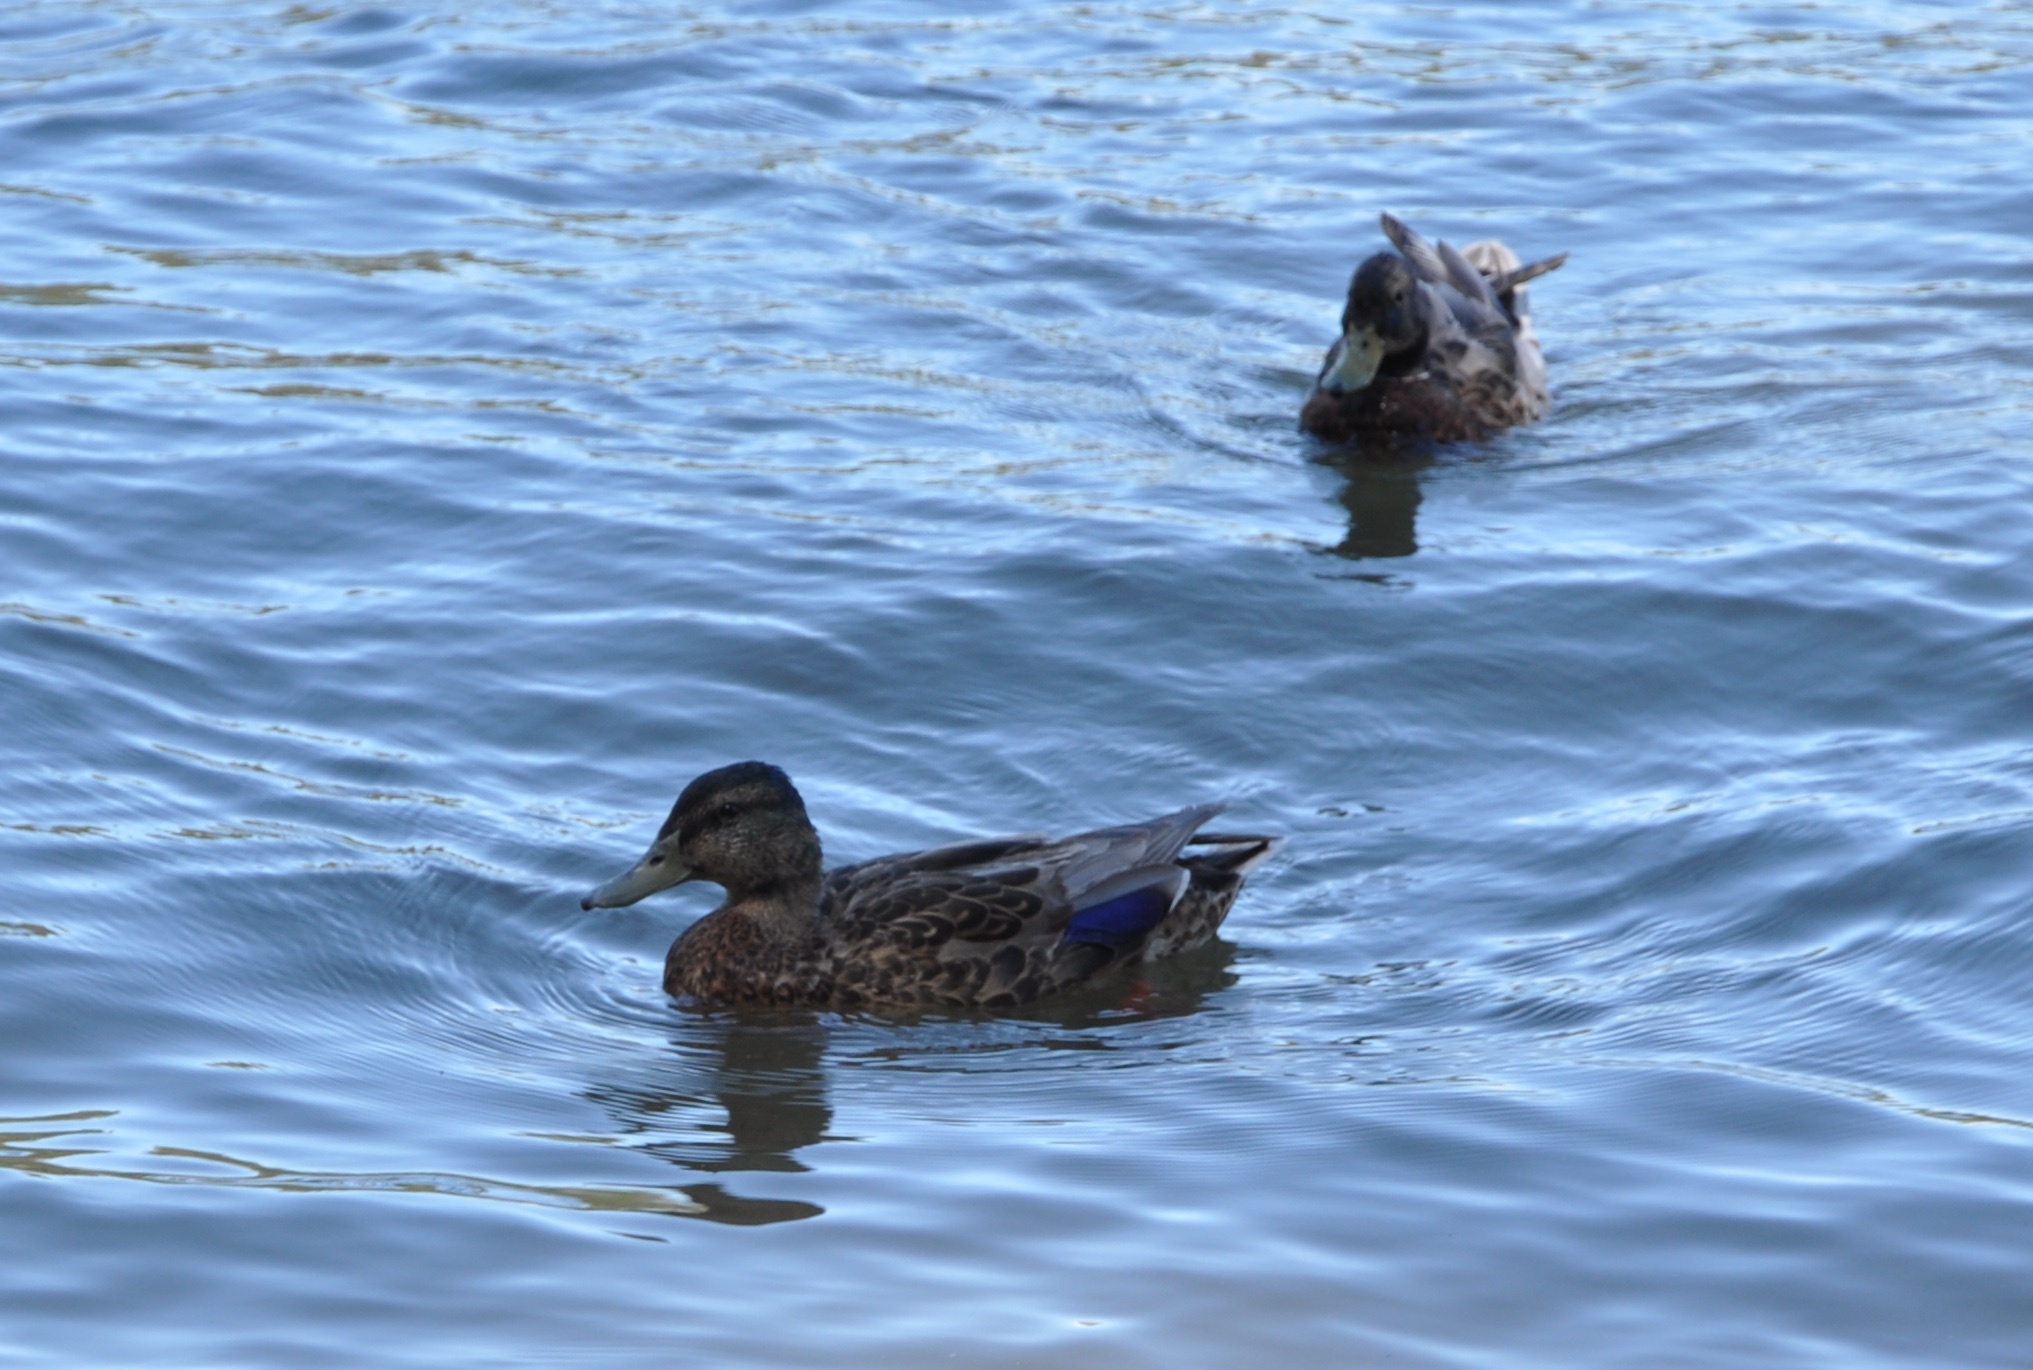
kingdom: Animalia
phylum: Chordata
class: Aves
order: Anseriformes
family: Anatidae
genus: Anas
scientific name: Anas platyrhynchos
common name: Mallard
